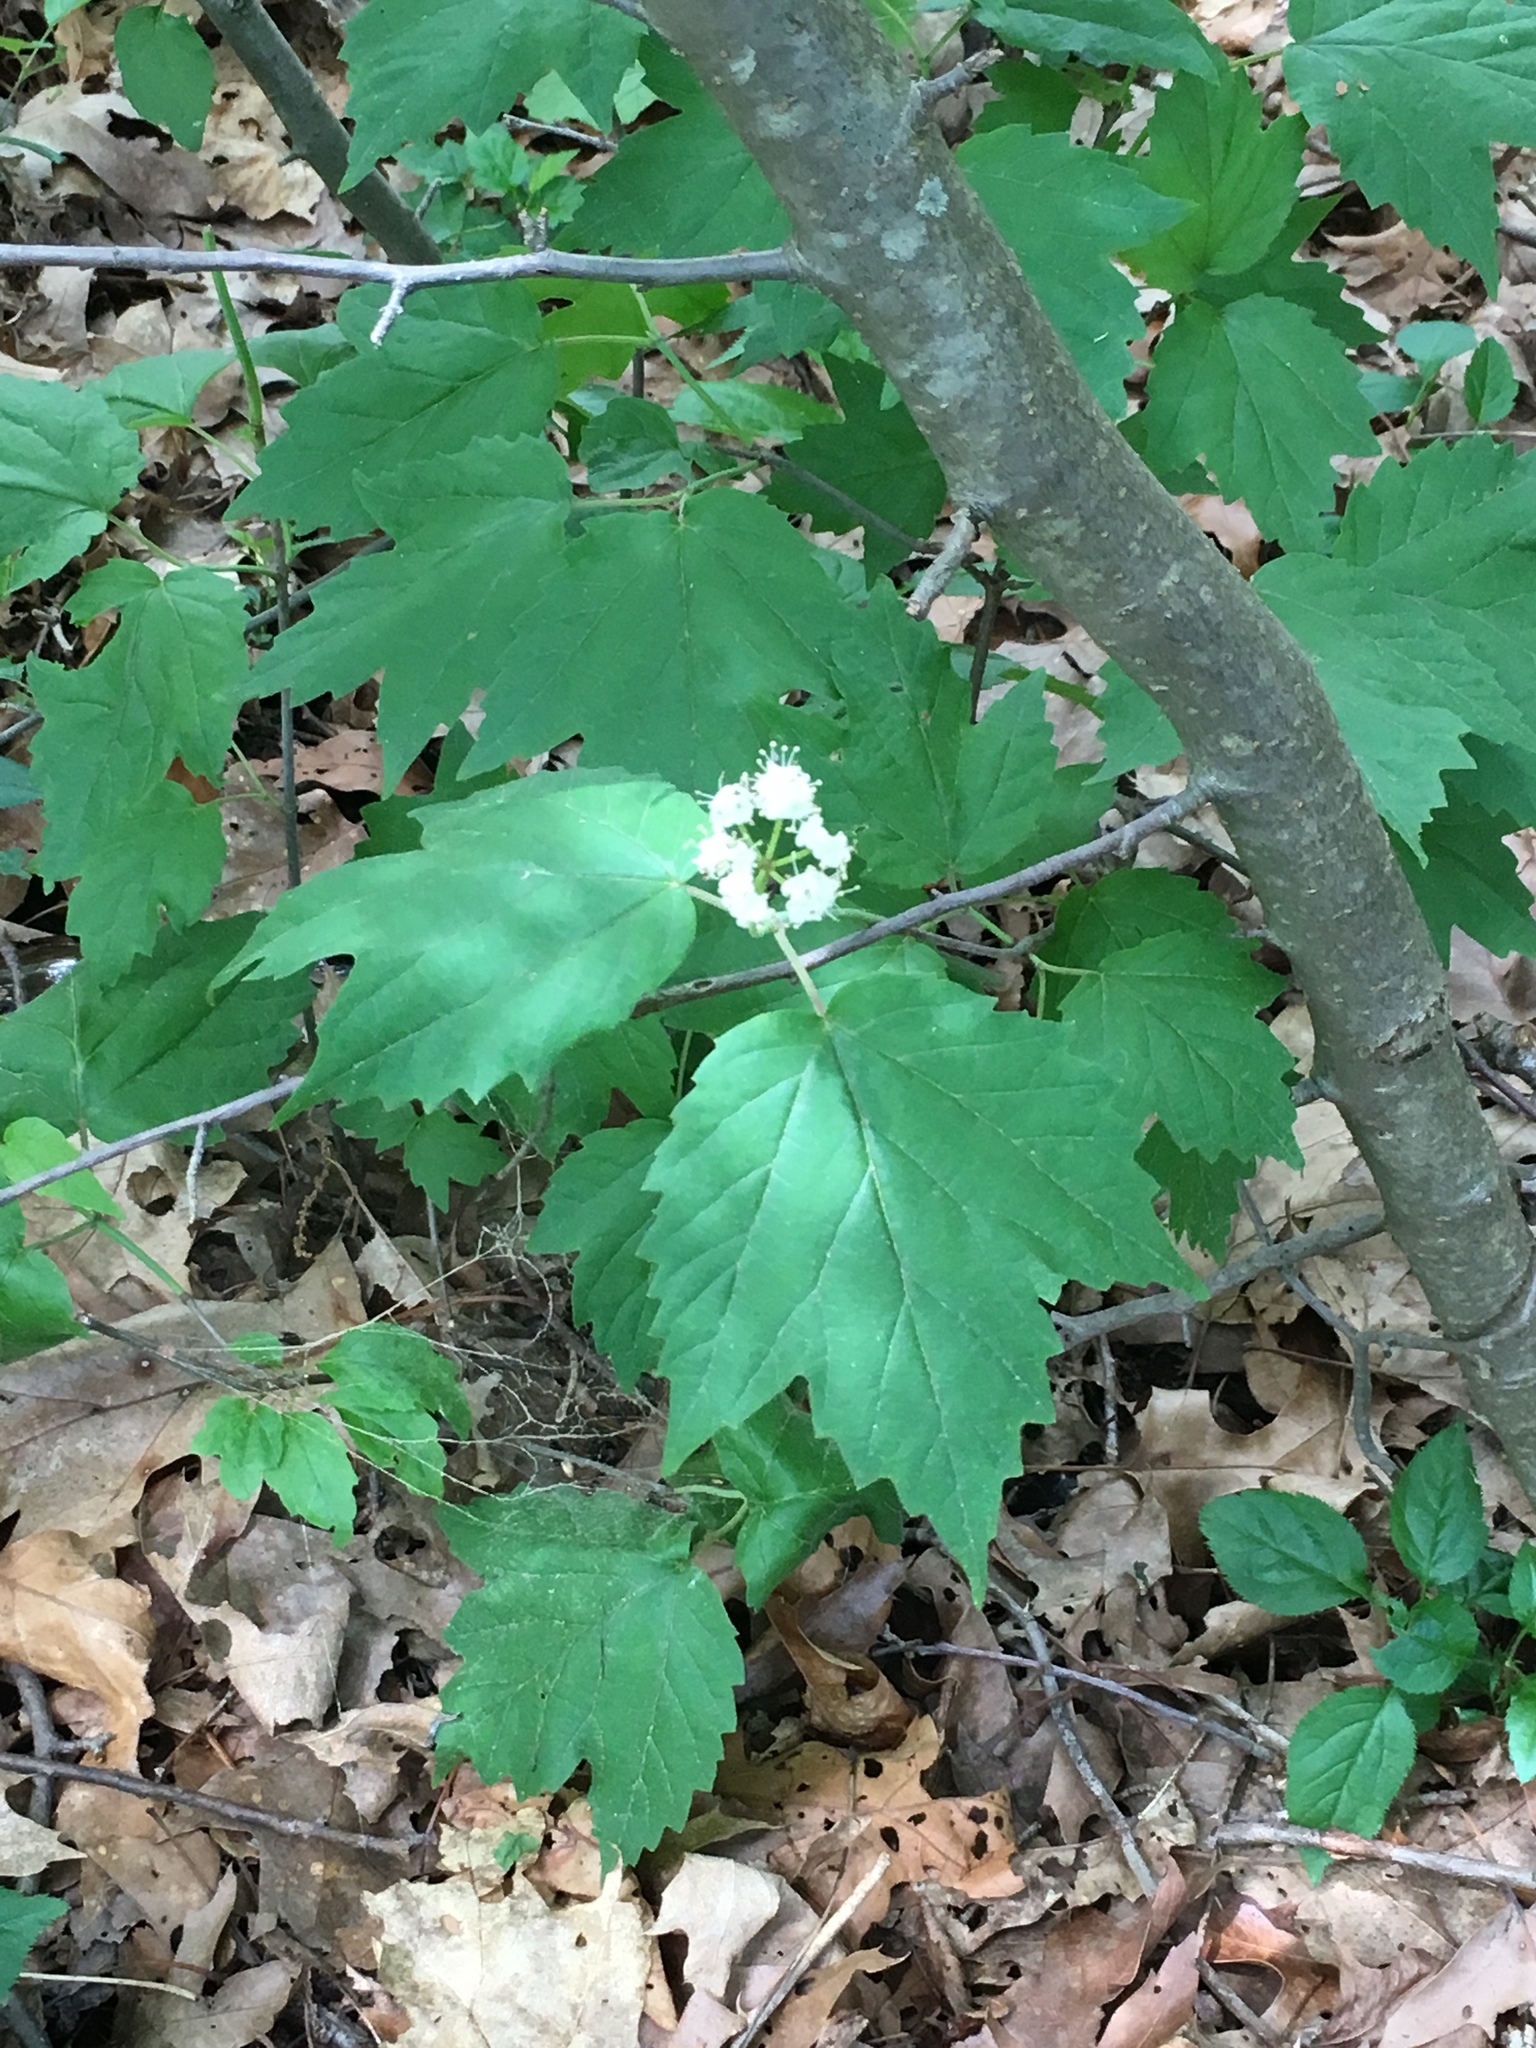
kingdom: Plantae
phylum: Tracheophyta
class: Magnoliopsida
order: Dipsacales
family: Viburnaceae
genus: Viburnum
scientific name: Viburnum acerifolium
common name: Dockmackie
